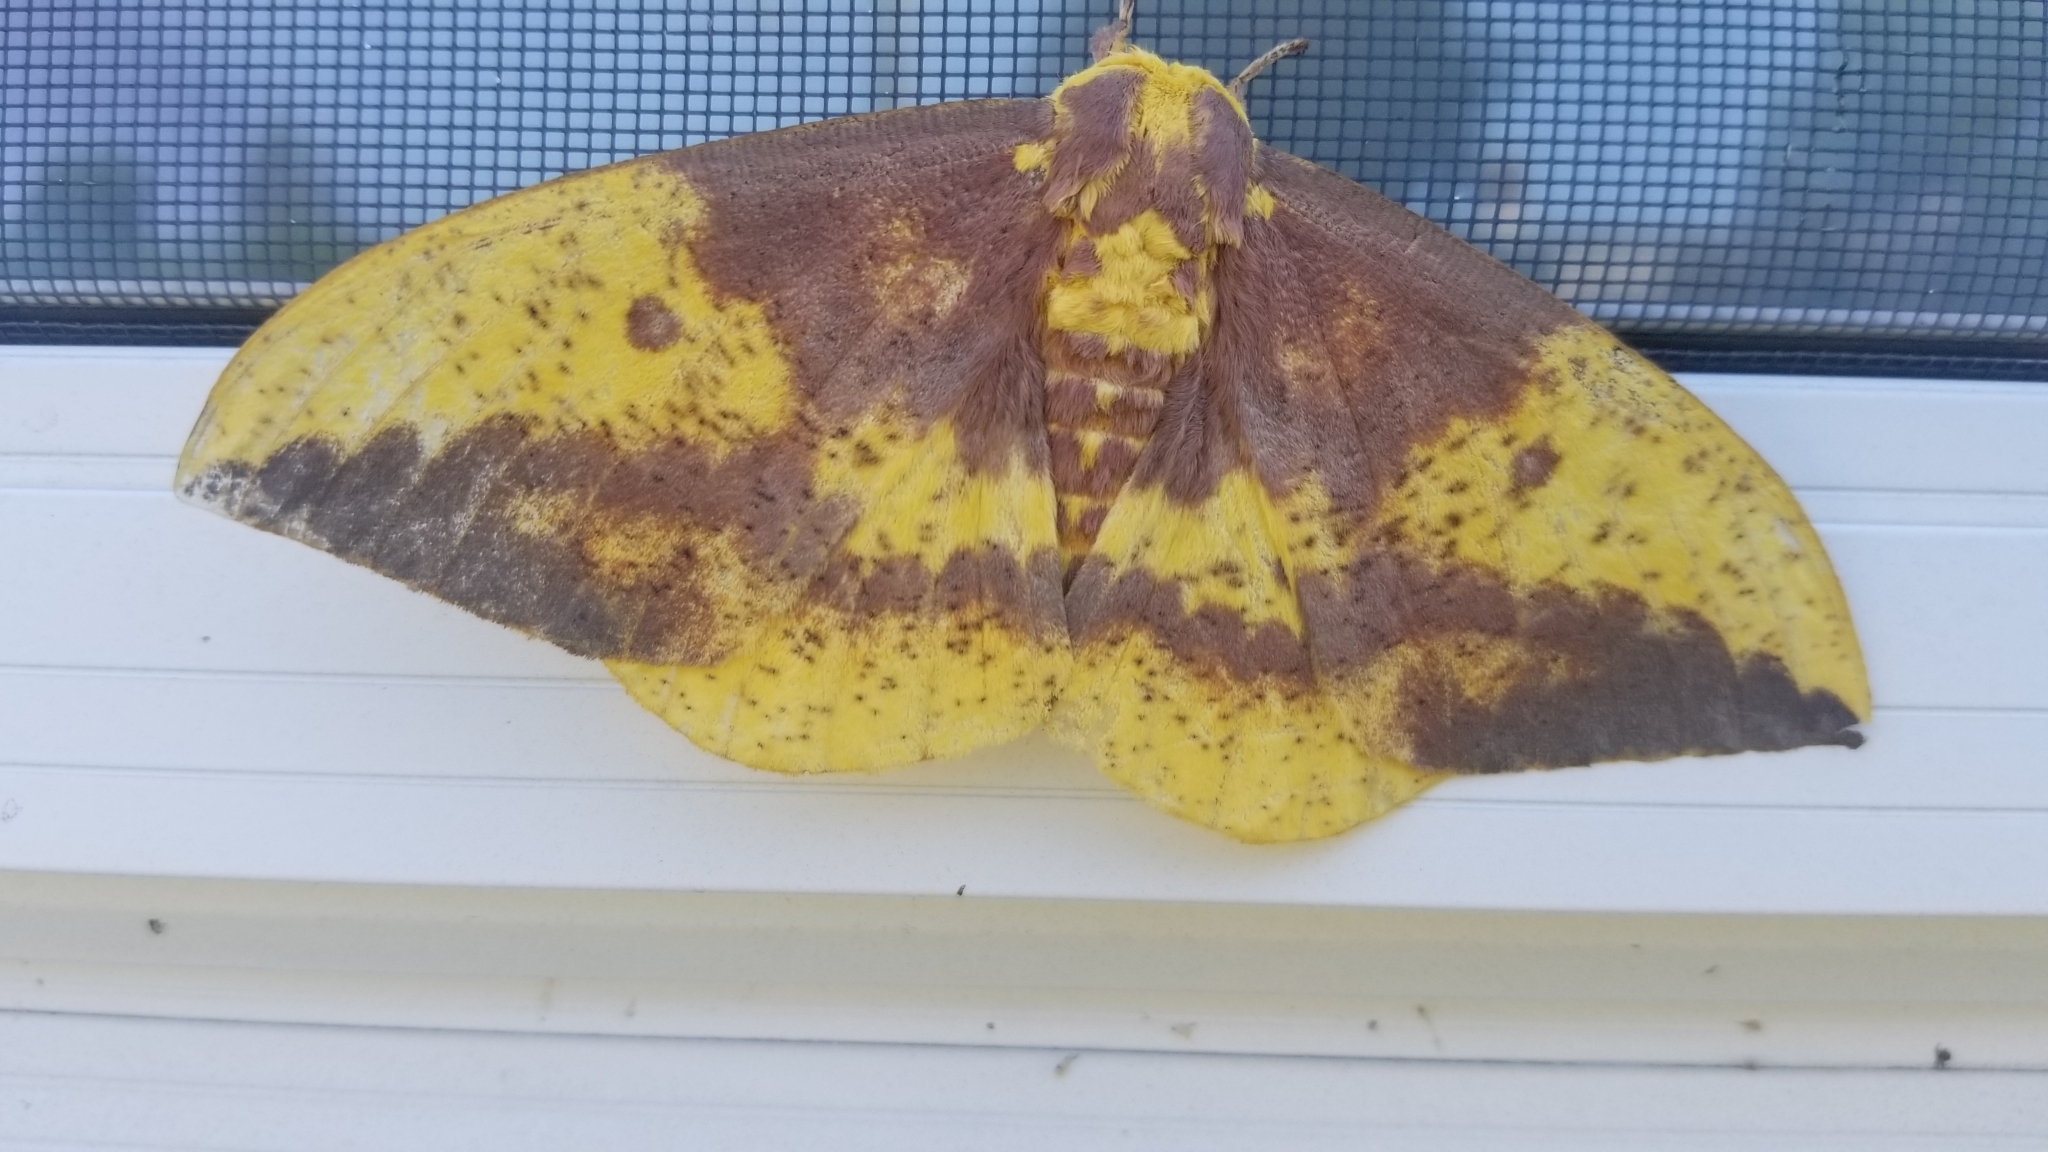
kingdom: Animalia
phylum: Arthropoda
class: Insecta
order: Lepidoptera
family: Saturniidae
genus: Eacles
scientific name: Eacles imperialis
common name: Imperial moth
